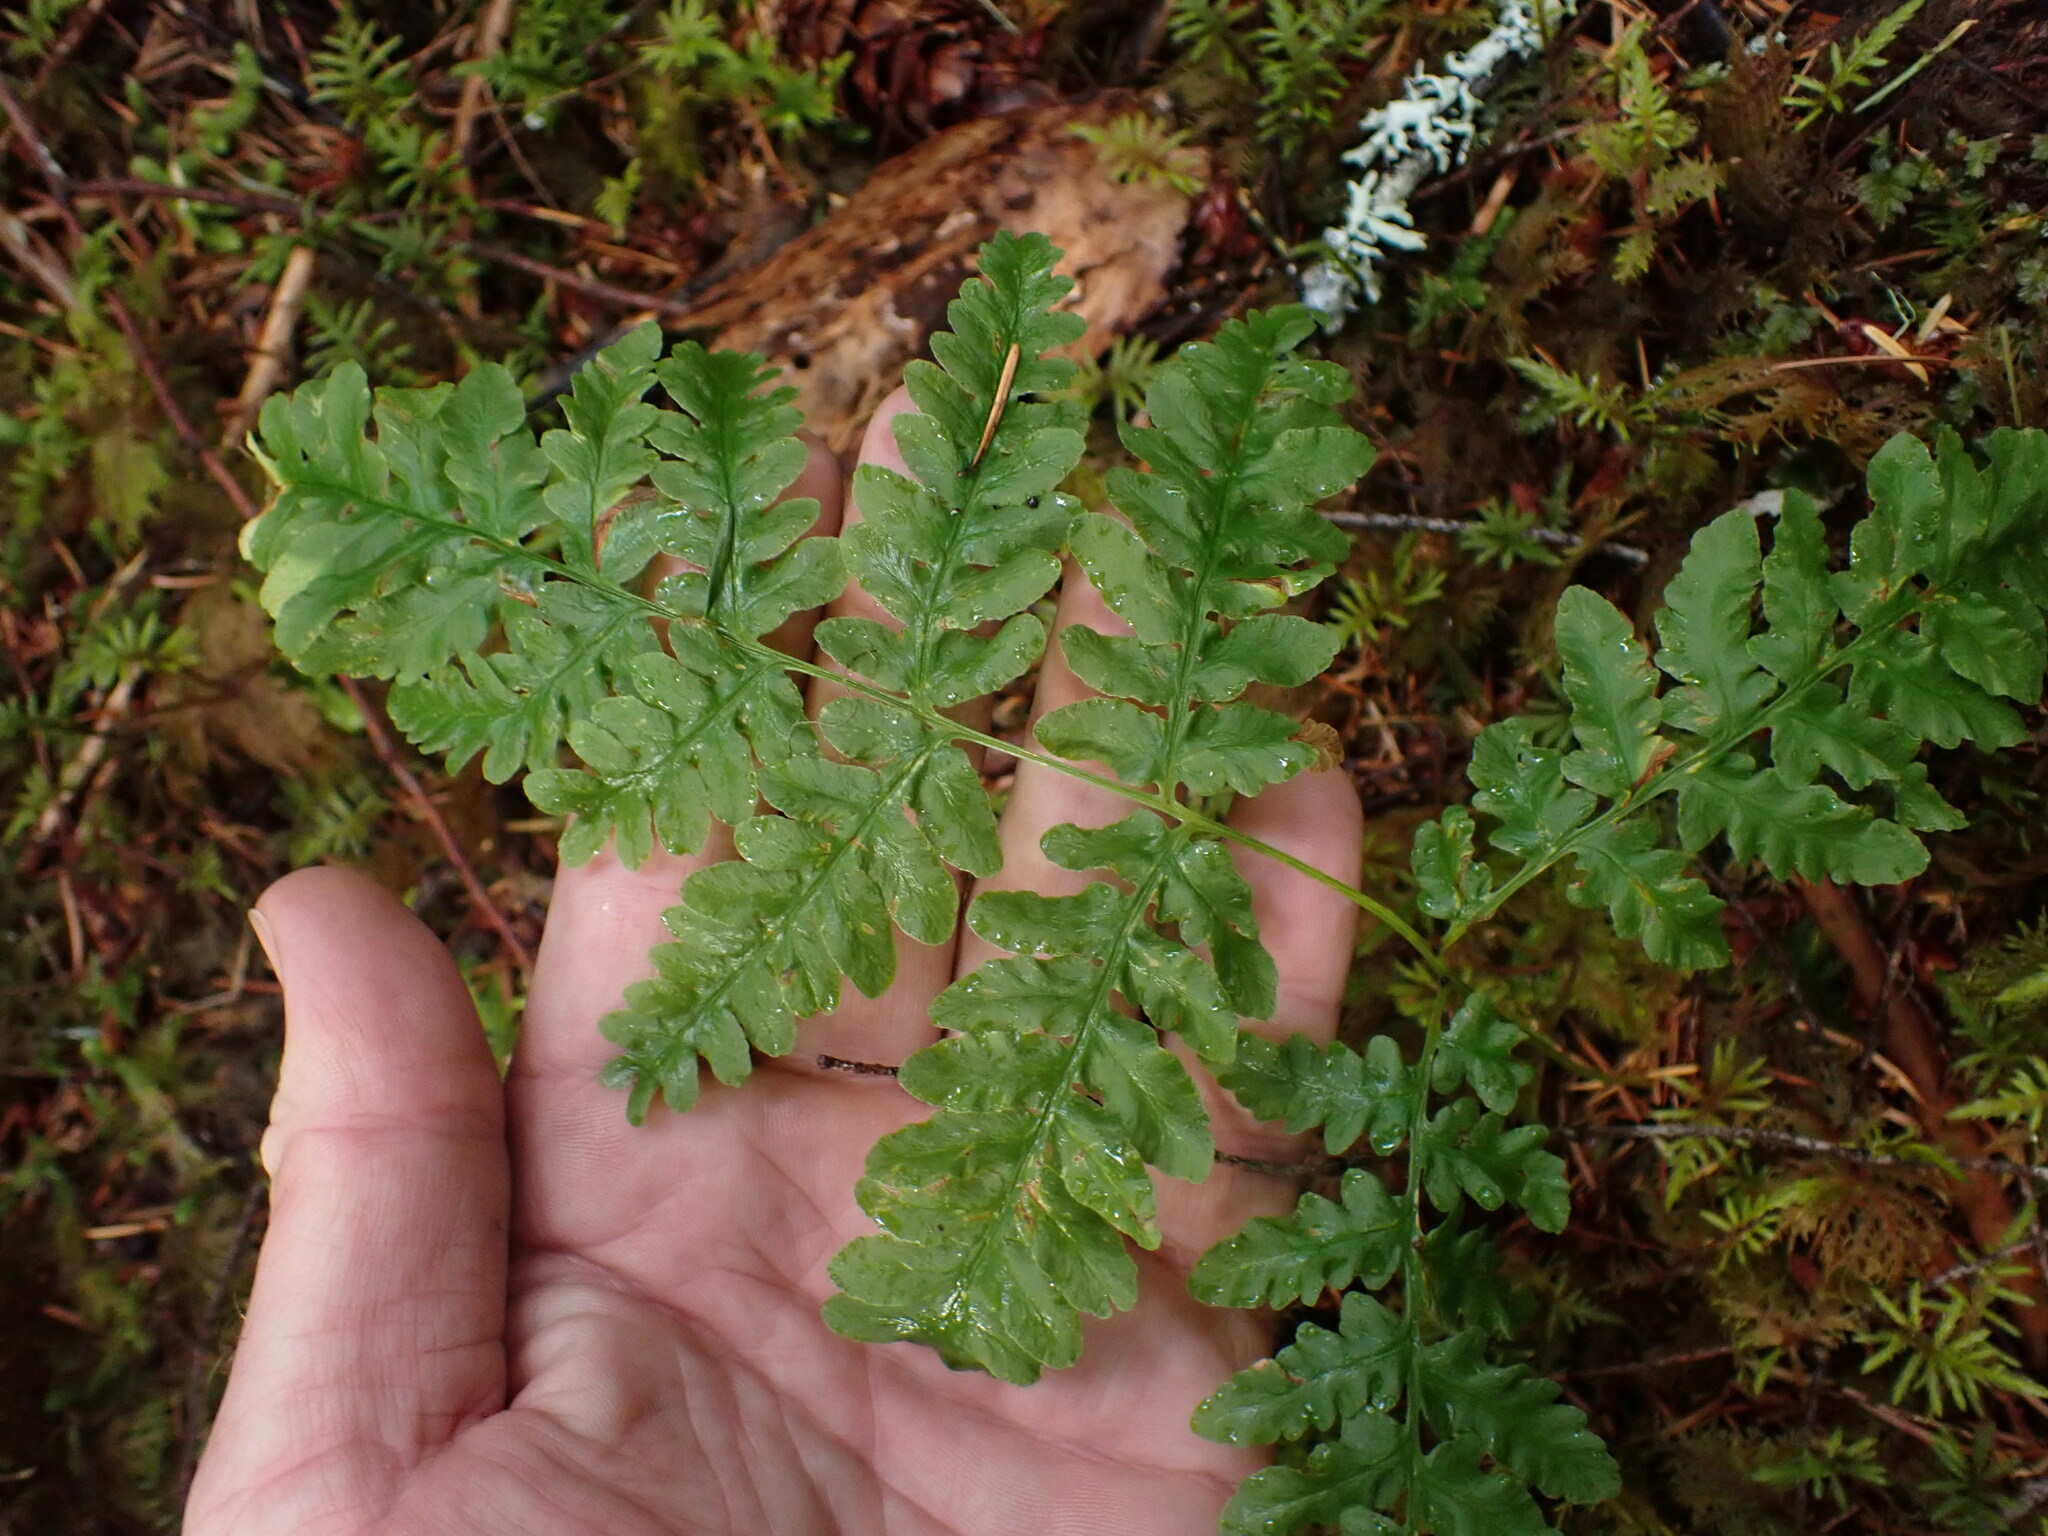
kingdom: Plantae
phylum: Tracheophyta
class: Polypodiopsida
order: Polypodiales
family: Dennstaedtiaceae
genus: Pteridium
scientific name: Pteridium aquilinum
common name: Bracken
